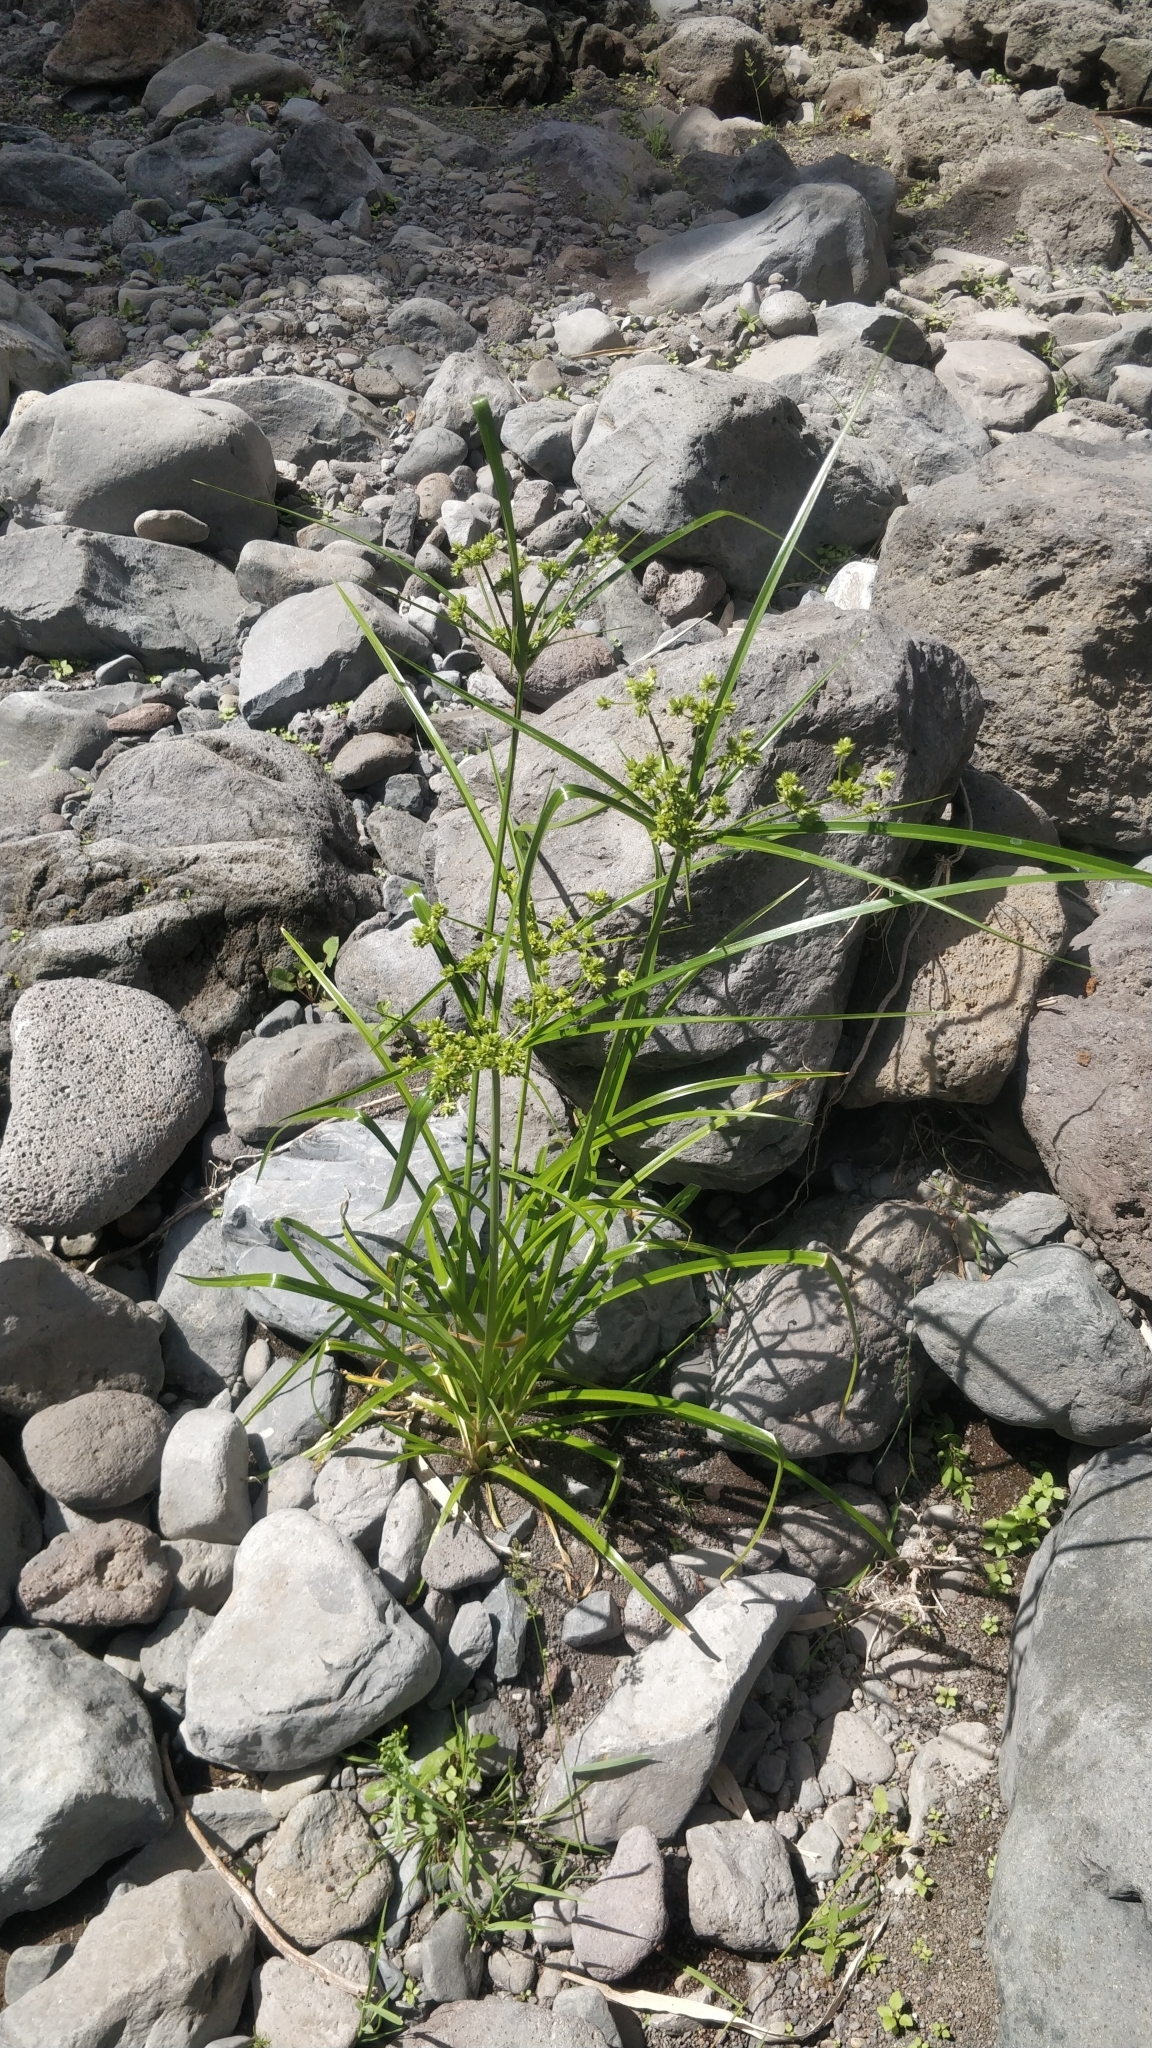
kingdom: Plantae
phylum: Tracheophyta
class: Liliopsida
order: Poales
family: Cyperaceae
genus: Cyperus
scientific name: Cyperus eragrostis
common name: Tall flatsedge
